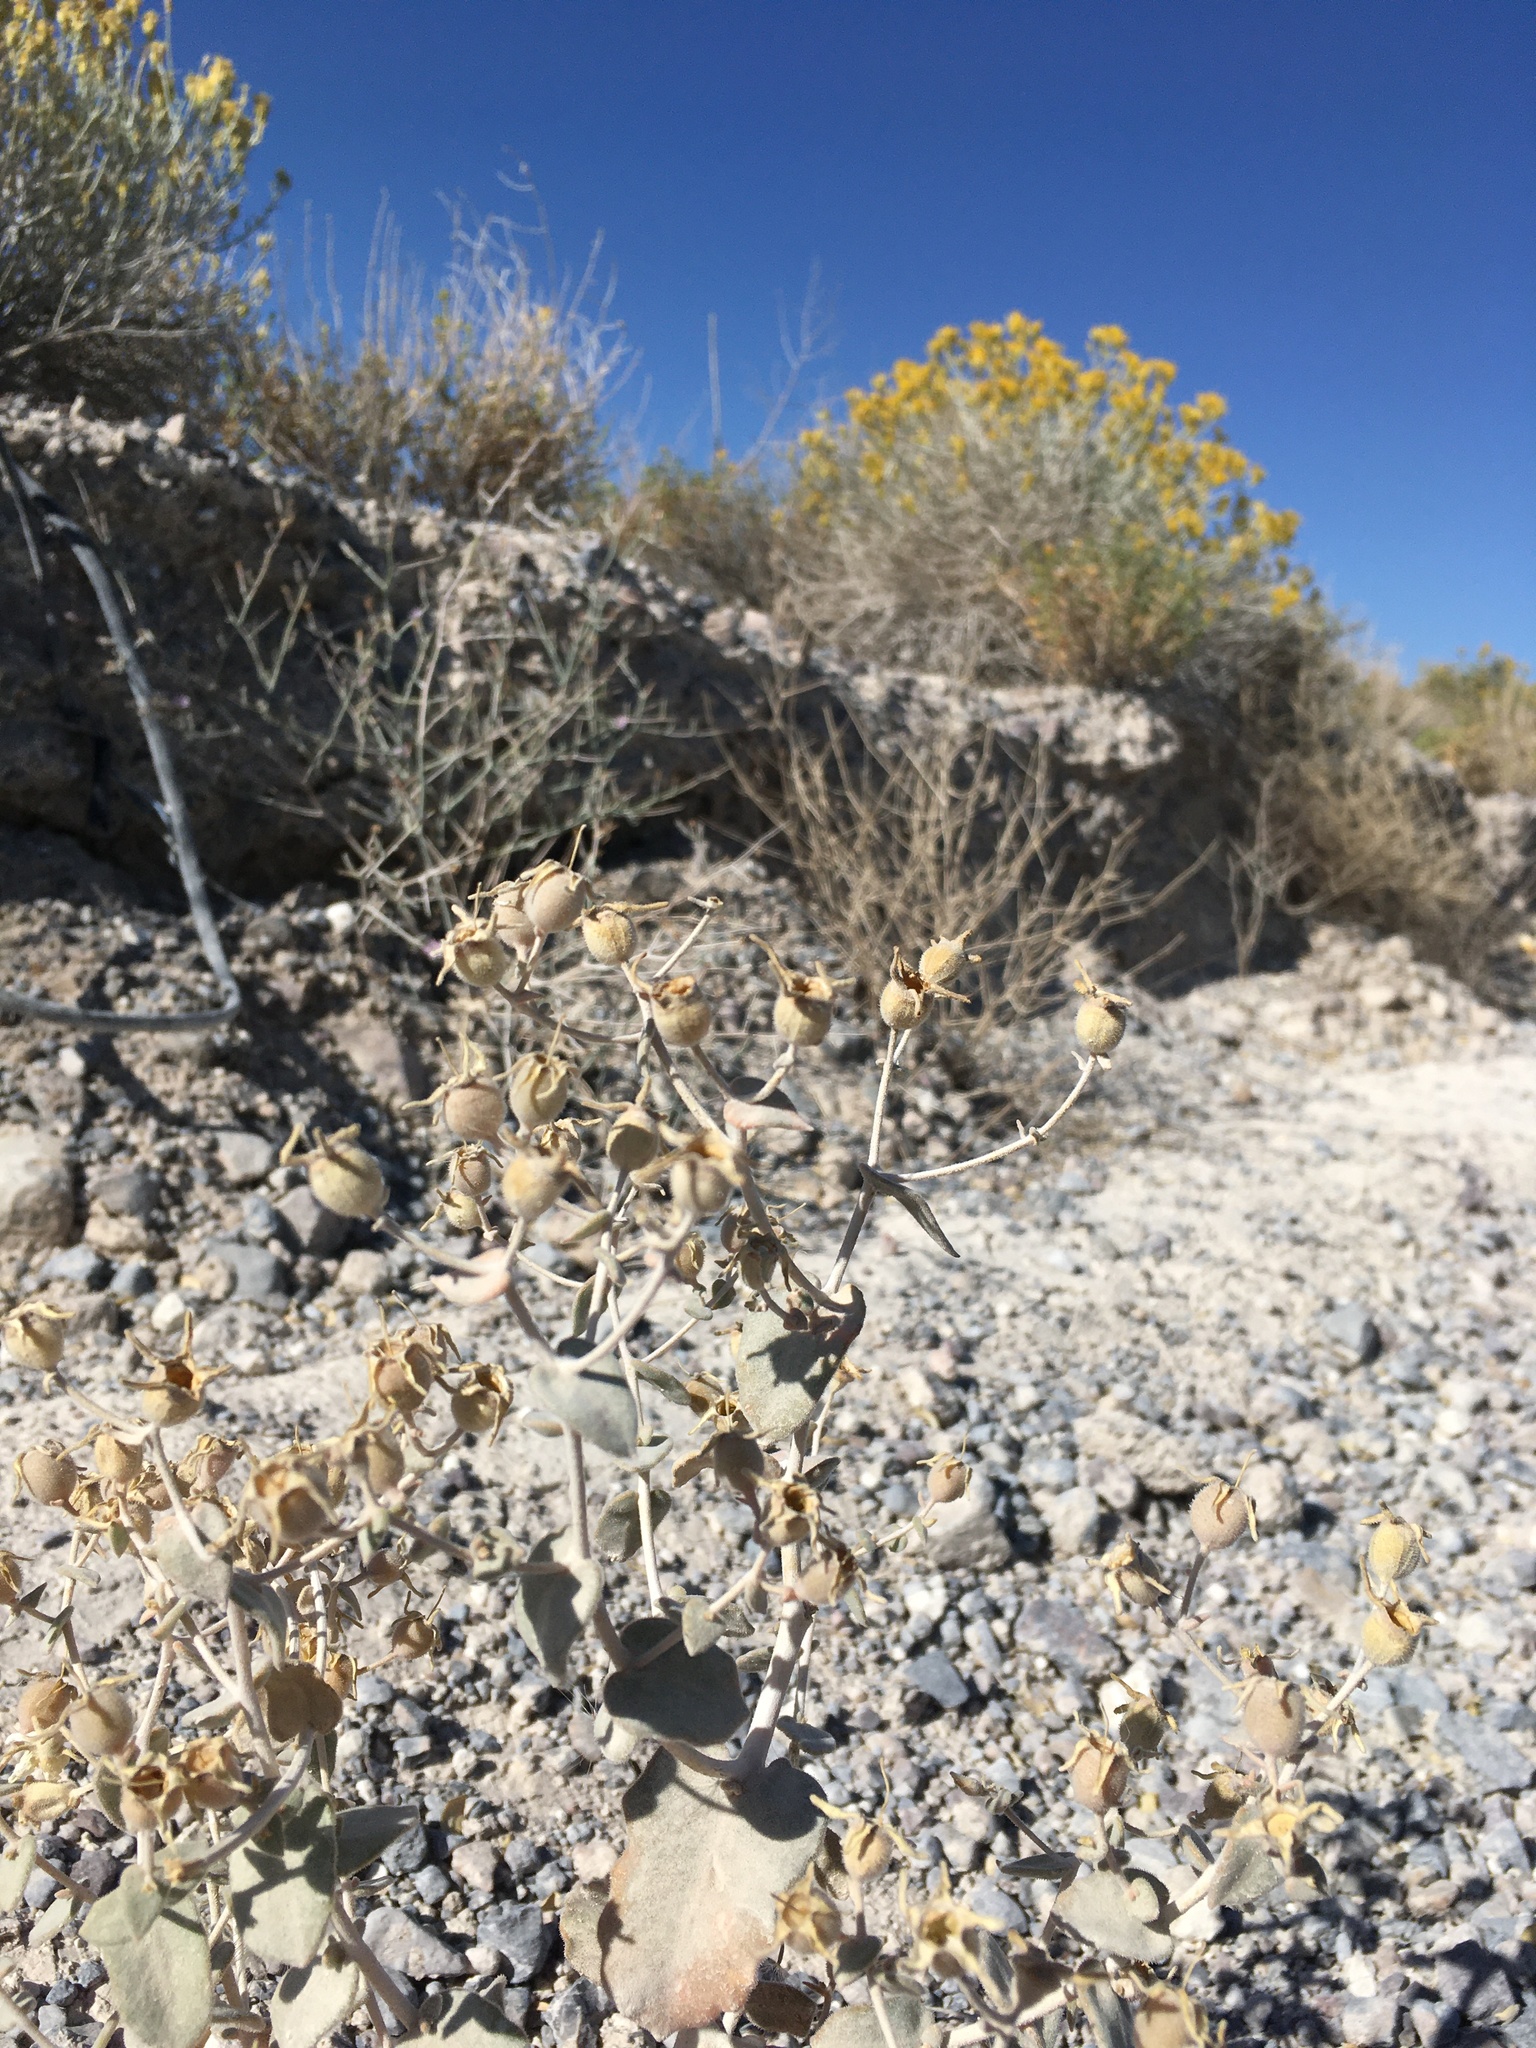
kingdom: Plantae
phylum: Tracheophyta
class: Magnoliopsida
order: Cornales
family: Loasaceae
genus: Mentzelia
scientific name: Mentzelia leucophylla
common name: Ash meadows blazingstar
